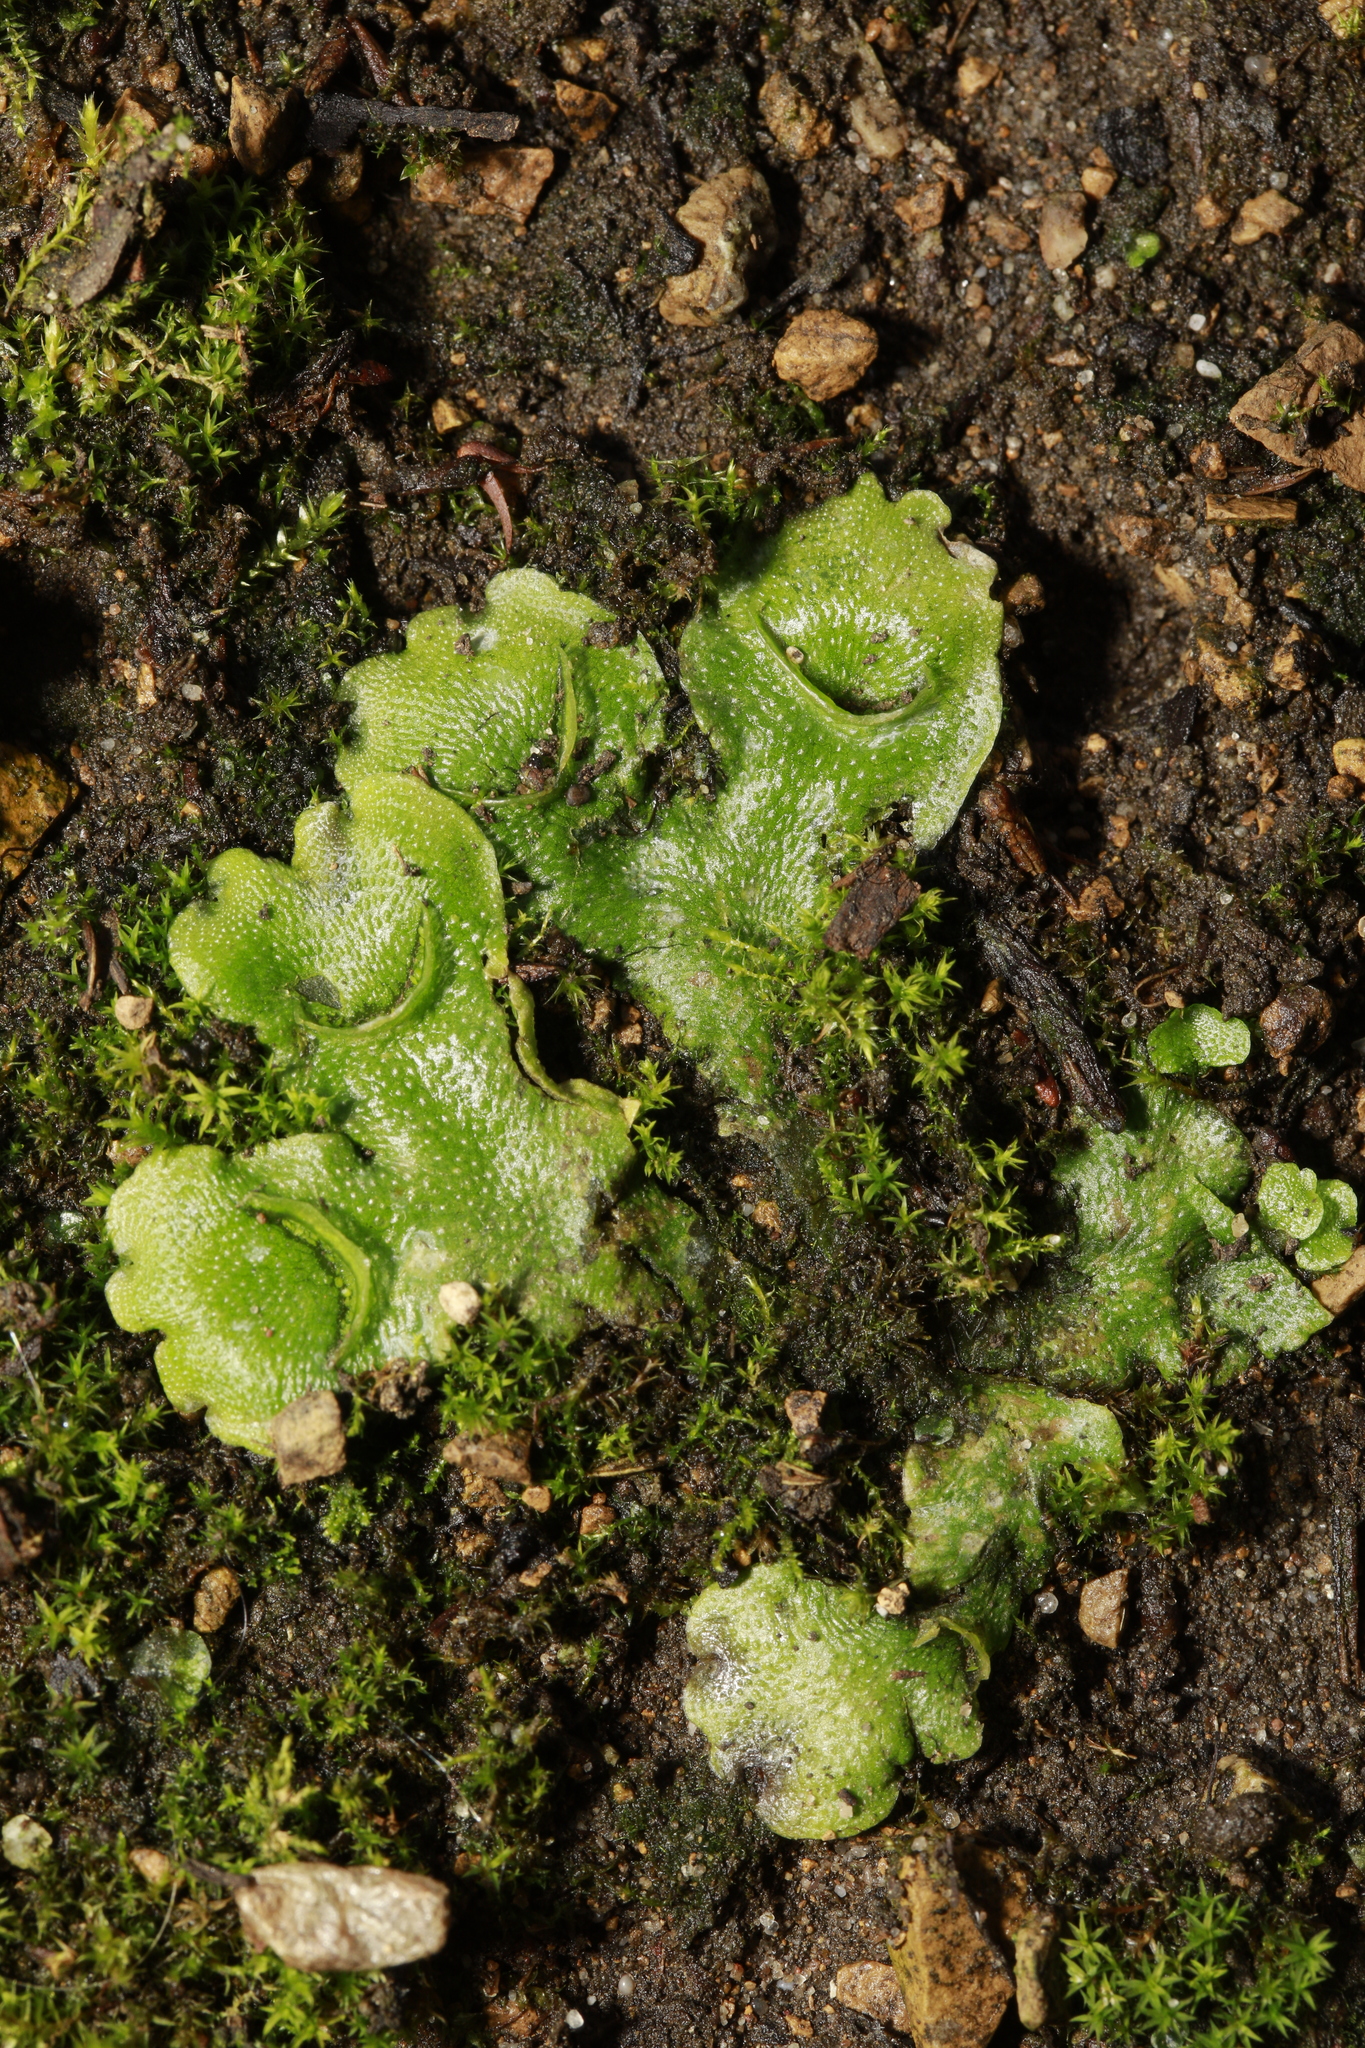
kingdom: Plantae
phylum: Marchantiophyta
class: Marchantiopsida
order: Lunulariales
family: Lunulariaceae
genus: Lunularia
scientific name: Lunularia cruciata
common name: Crescent-cup liverwort
